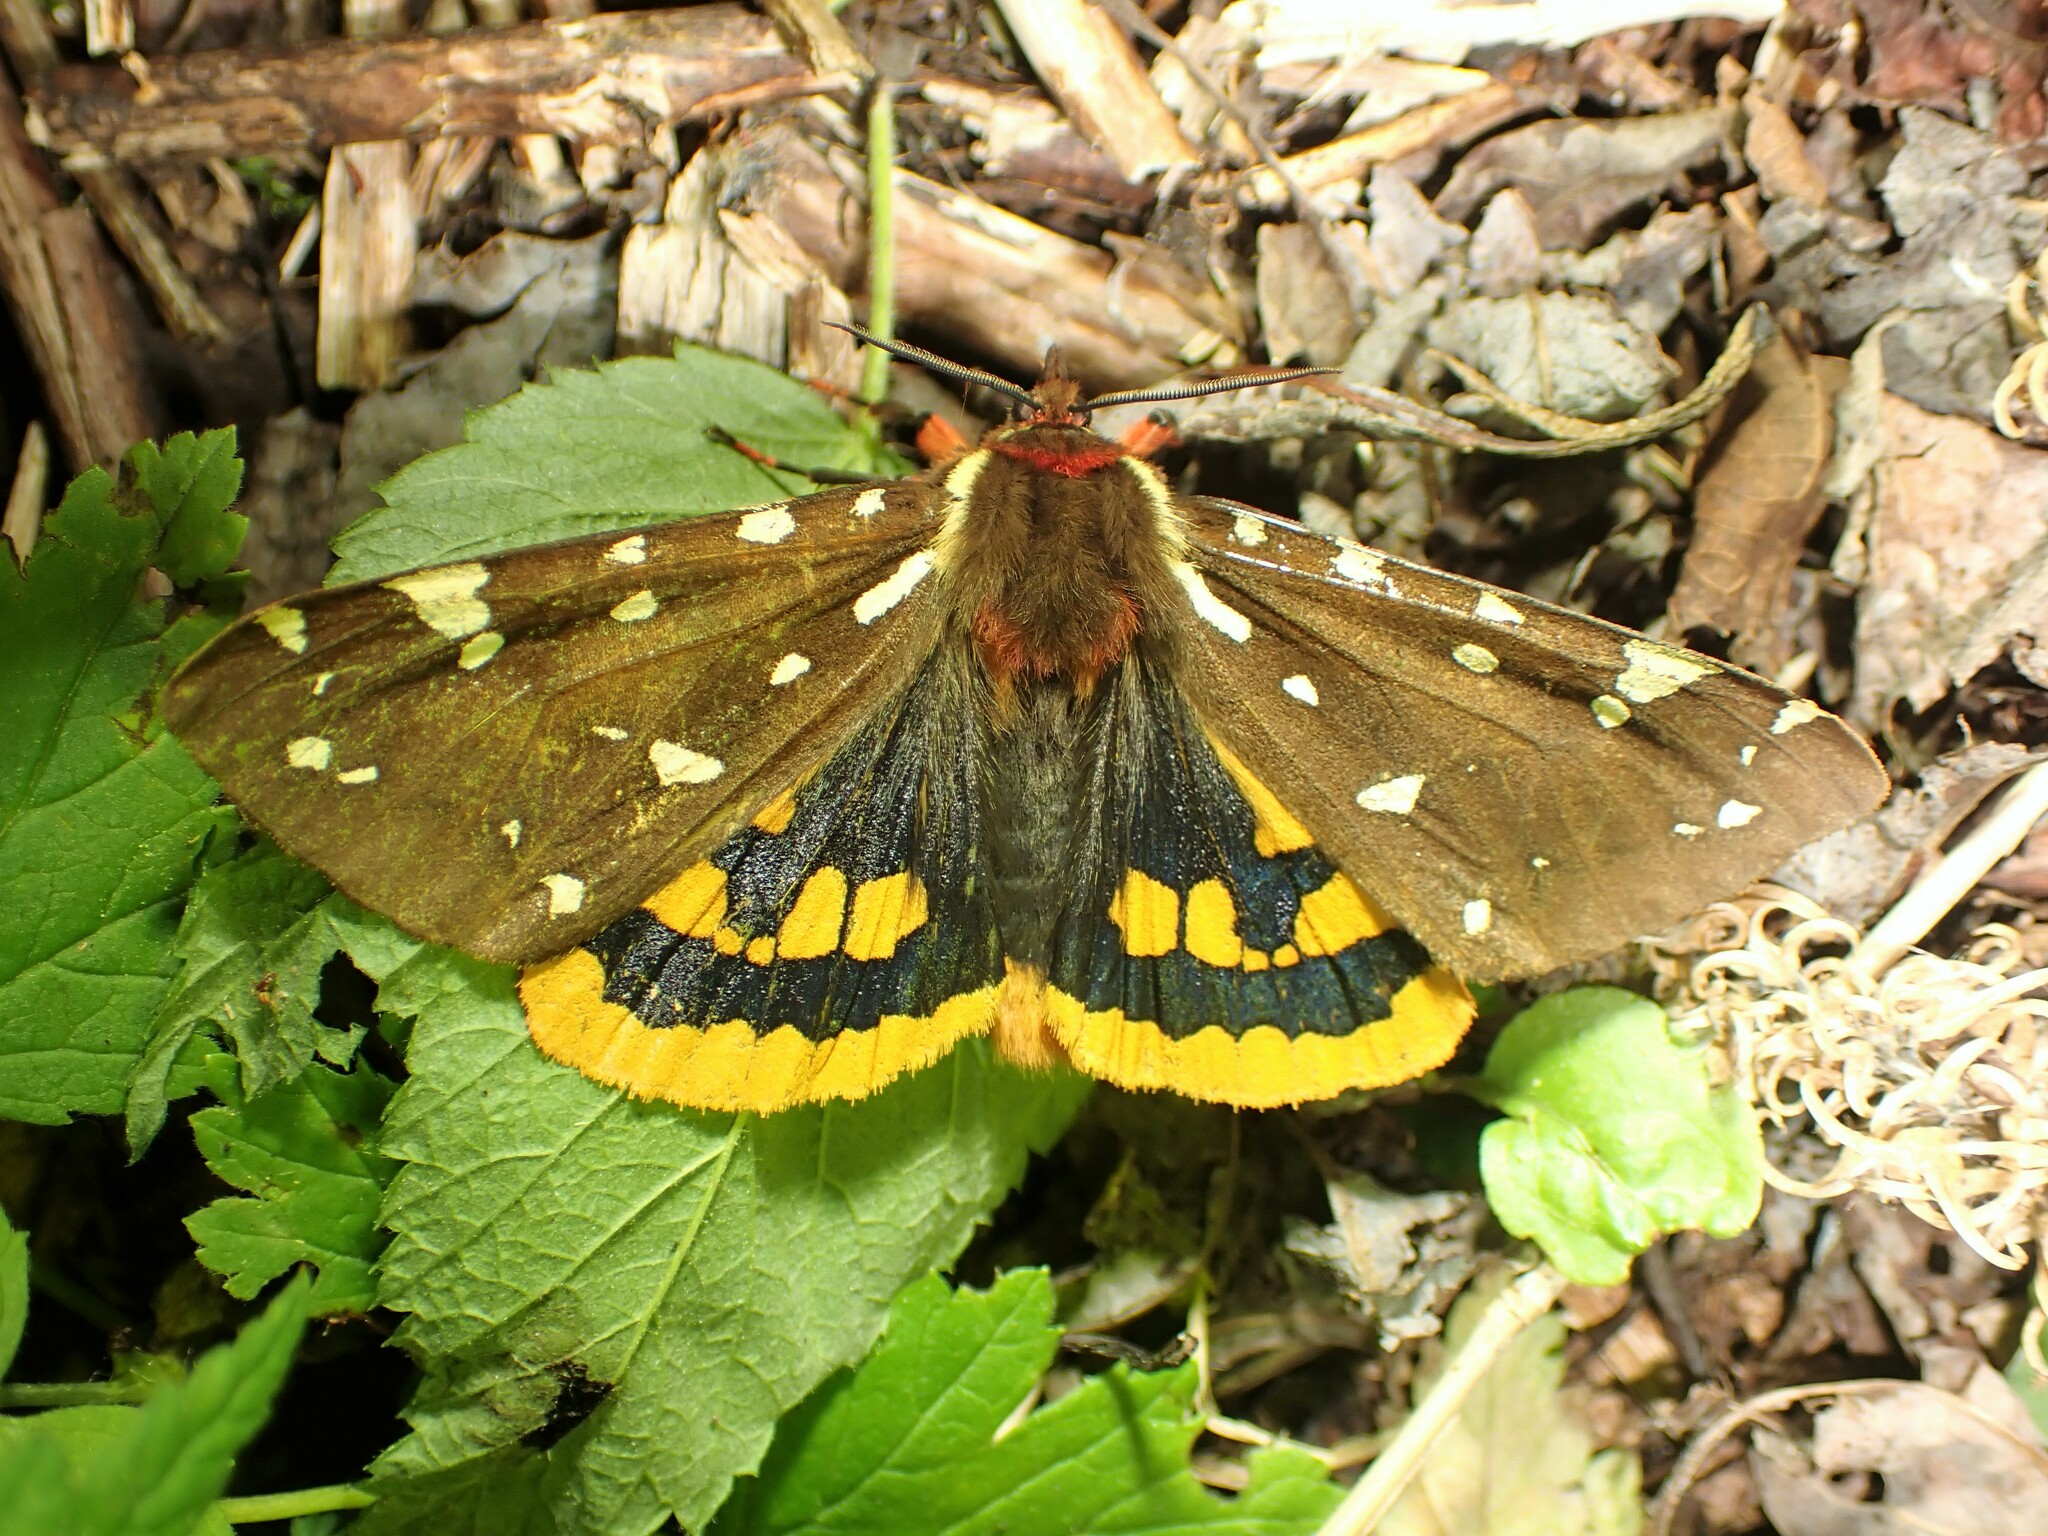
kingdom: Animalia
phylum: Arthropoda
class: Insecta
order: Lepidoptera
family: Erebidae
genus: Arctia
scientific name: Arctia parthenos
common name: St. lawrence tiger moth
